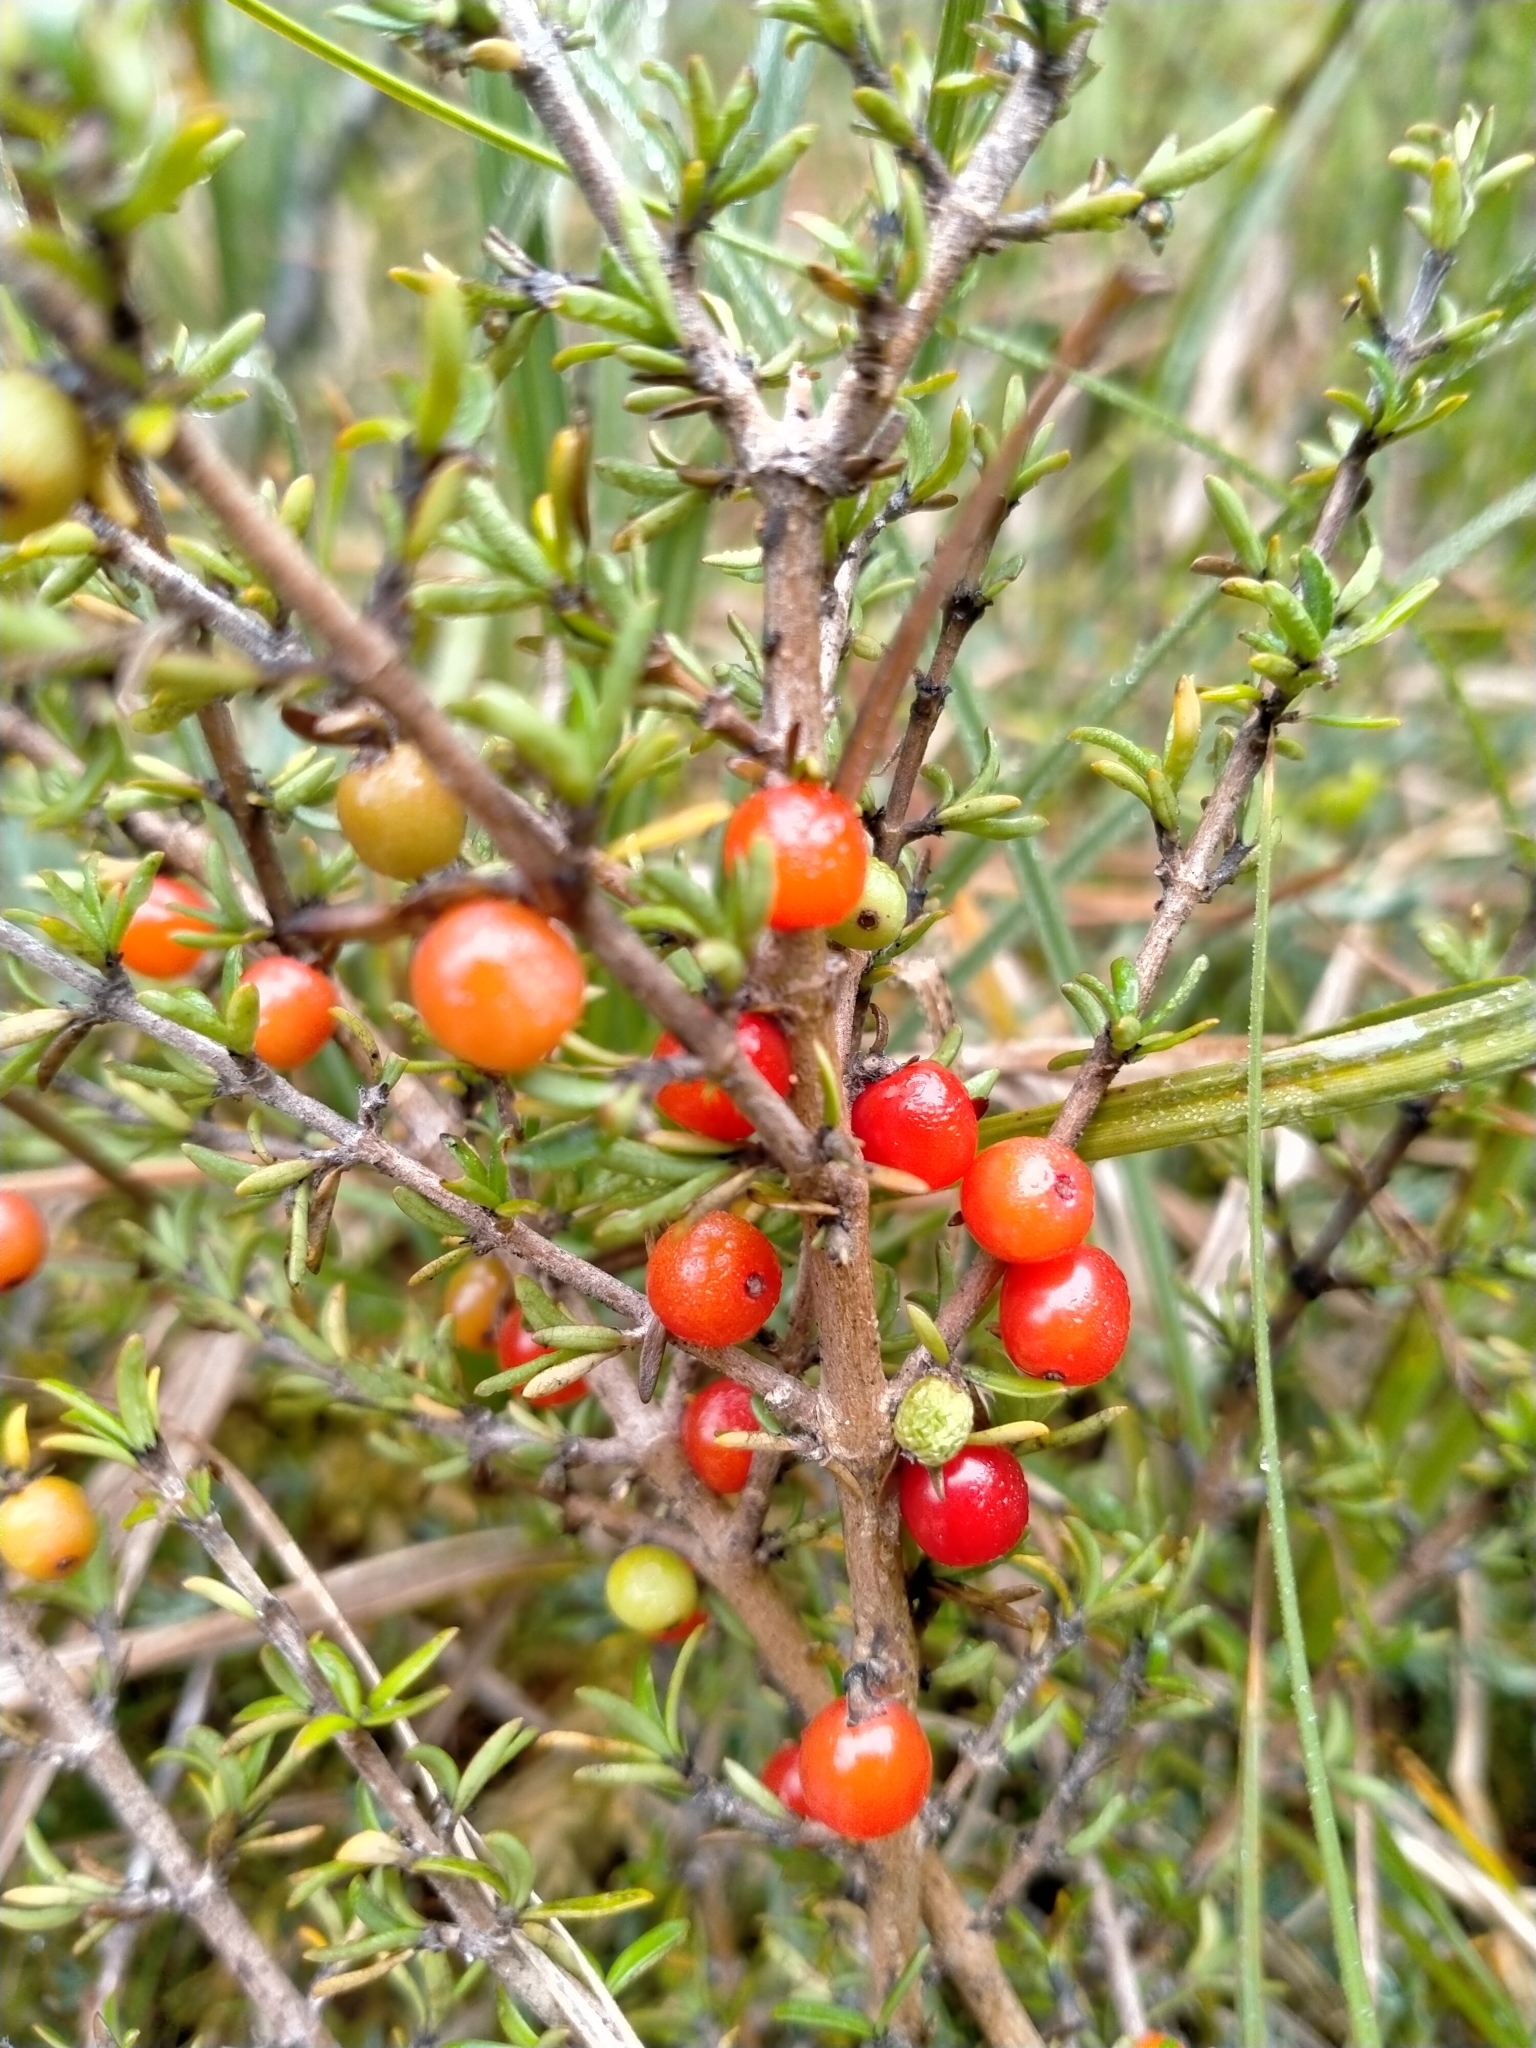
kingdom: Plantae
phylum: Tracheophyta
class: Magnoliopsida
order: Gentianales
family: Rubiaceae
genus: Coprosma
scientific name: Coprosma cheesemanii
